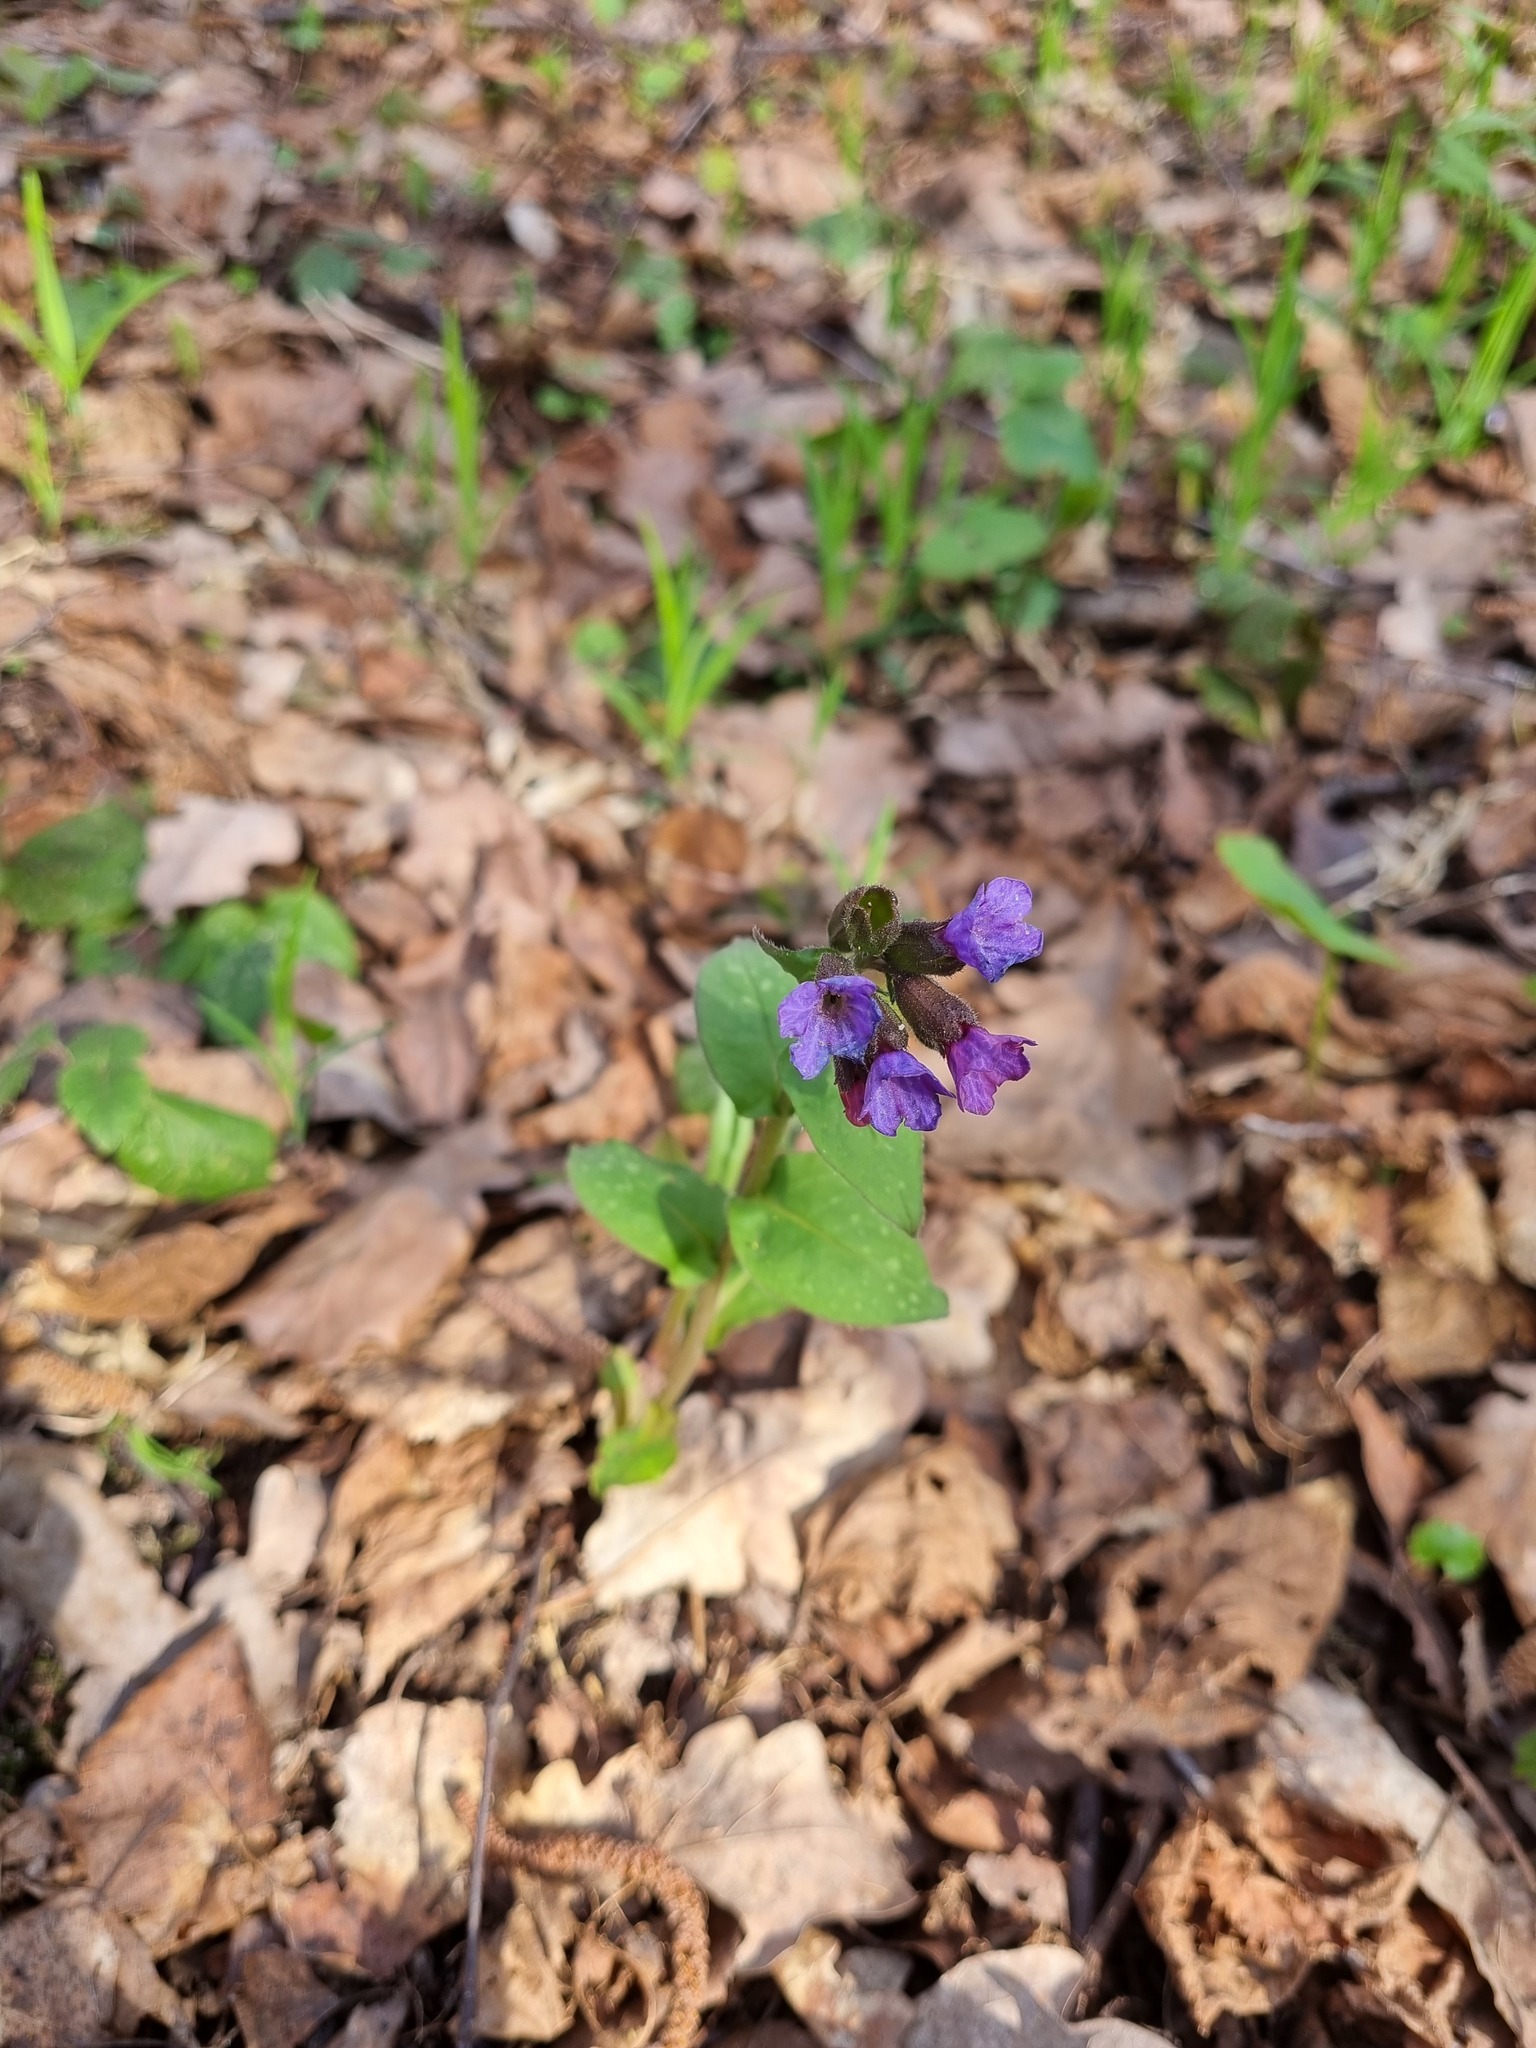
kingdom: Plantae
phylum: Tracheophyta
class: Magnoliopsida
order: Boraginales
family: Boraginaceae
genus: Pulmonaria
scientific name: Pulmonaria obscura
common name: Suffolk lungwort
